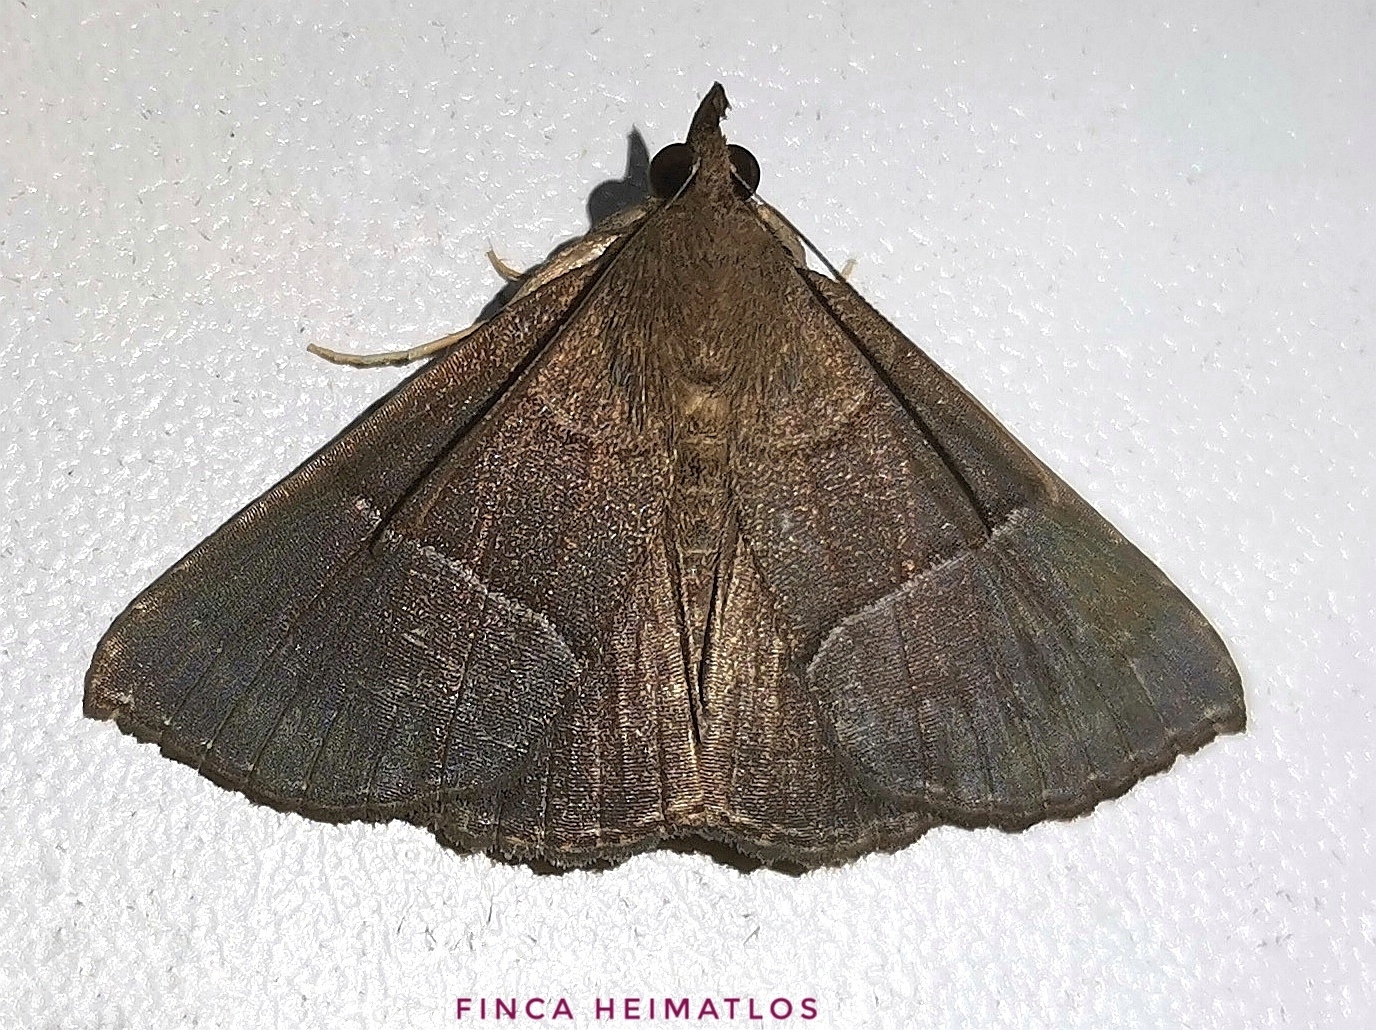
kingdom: Animalia
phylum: Arthropoda
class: Insecta
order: Lepidoptera
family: Erebidae
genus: Hypena
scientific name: Hypena hemonalis
